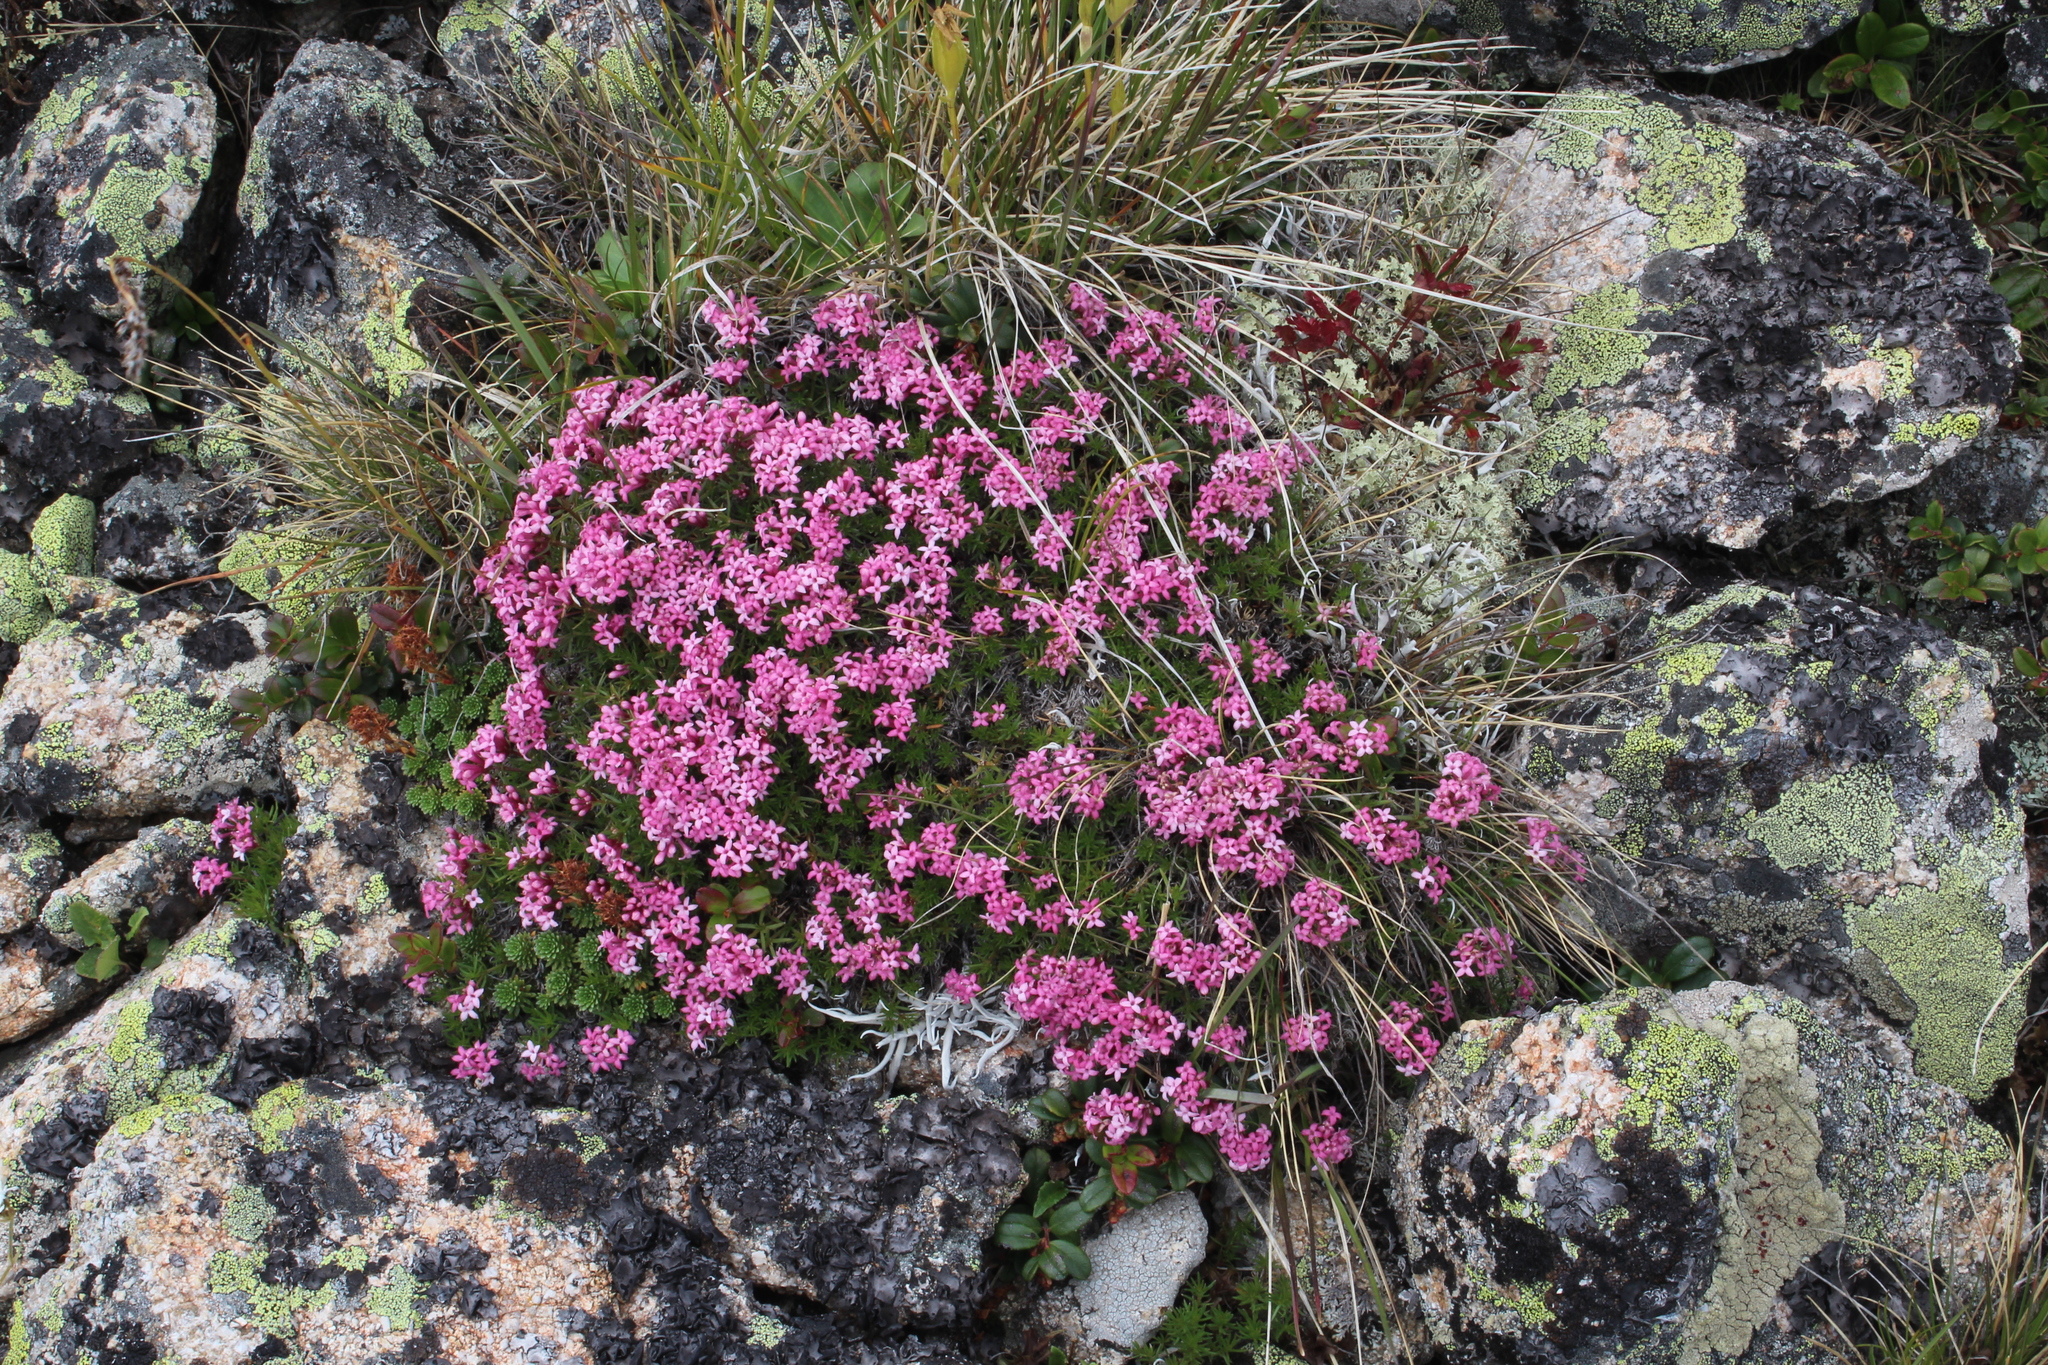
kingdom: Plantae
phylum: Tracheophyta
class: Magnoliopsida
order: Gentianales
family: Rubiaceae
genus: Cynanchica
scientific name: Cynanchica cristata
